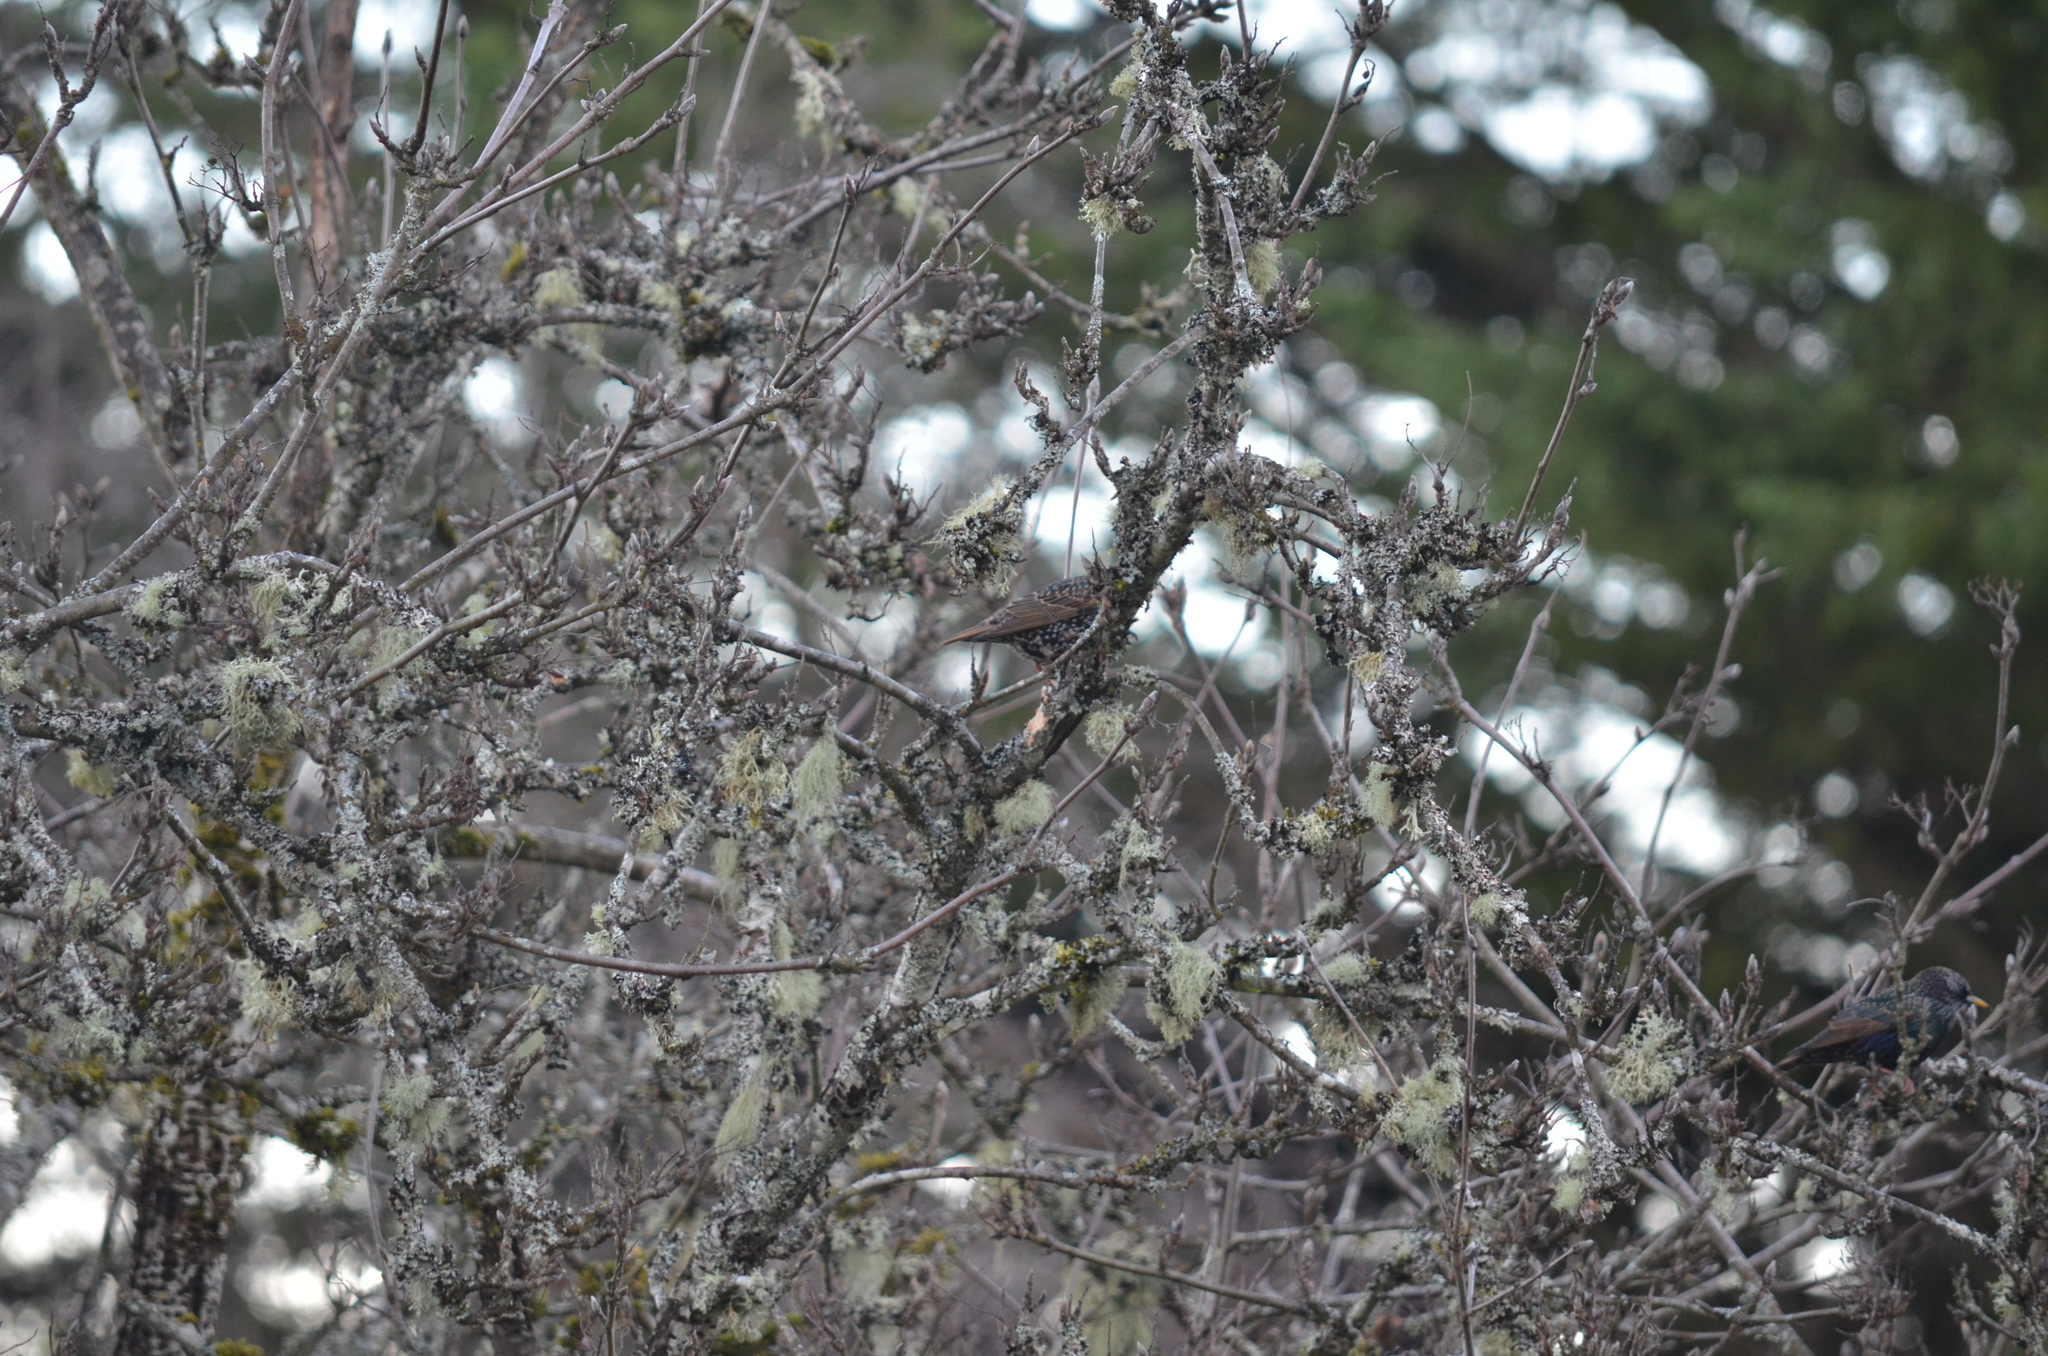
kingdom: Animalia
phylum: Chordata
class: Aves
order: Passeriformes
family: Sturnidae
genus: Sturnus
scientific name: Sturnus vulgaris
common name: Common starling
